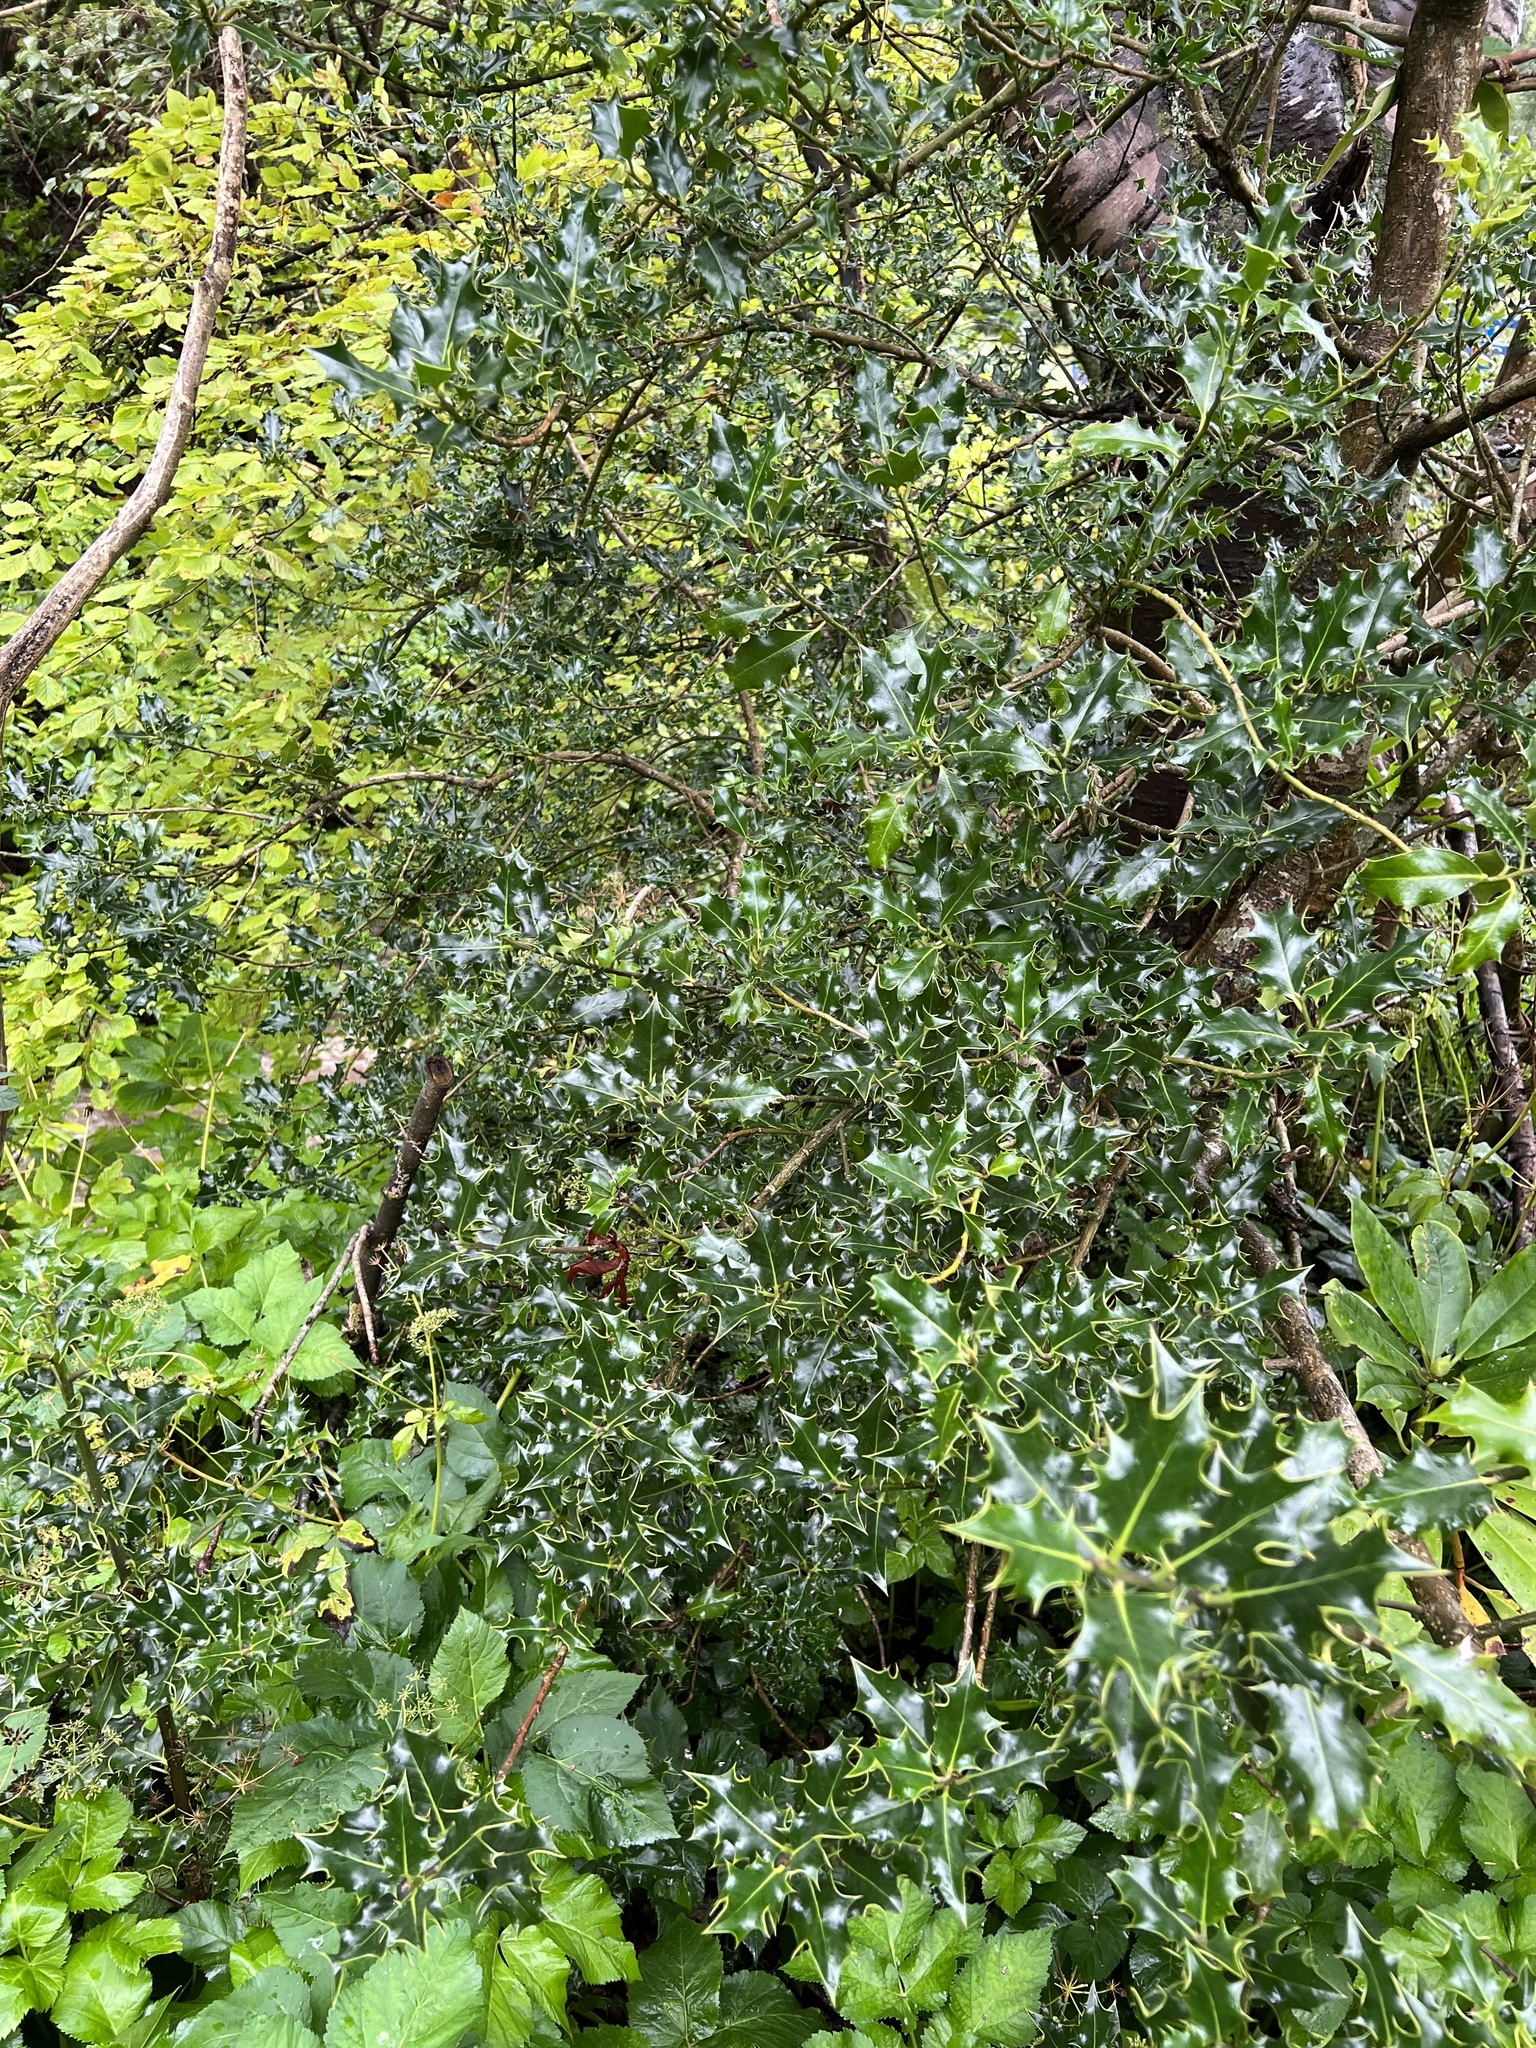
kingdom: Plantae
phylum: Tracheophyta
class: Magnoliopsida
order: Aquifoliales
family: Aquifoliaceae
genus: Ilex
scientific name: Ilex aquifolium
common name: English holly
